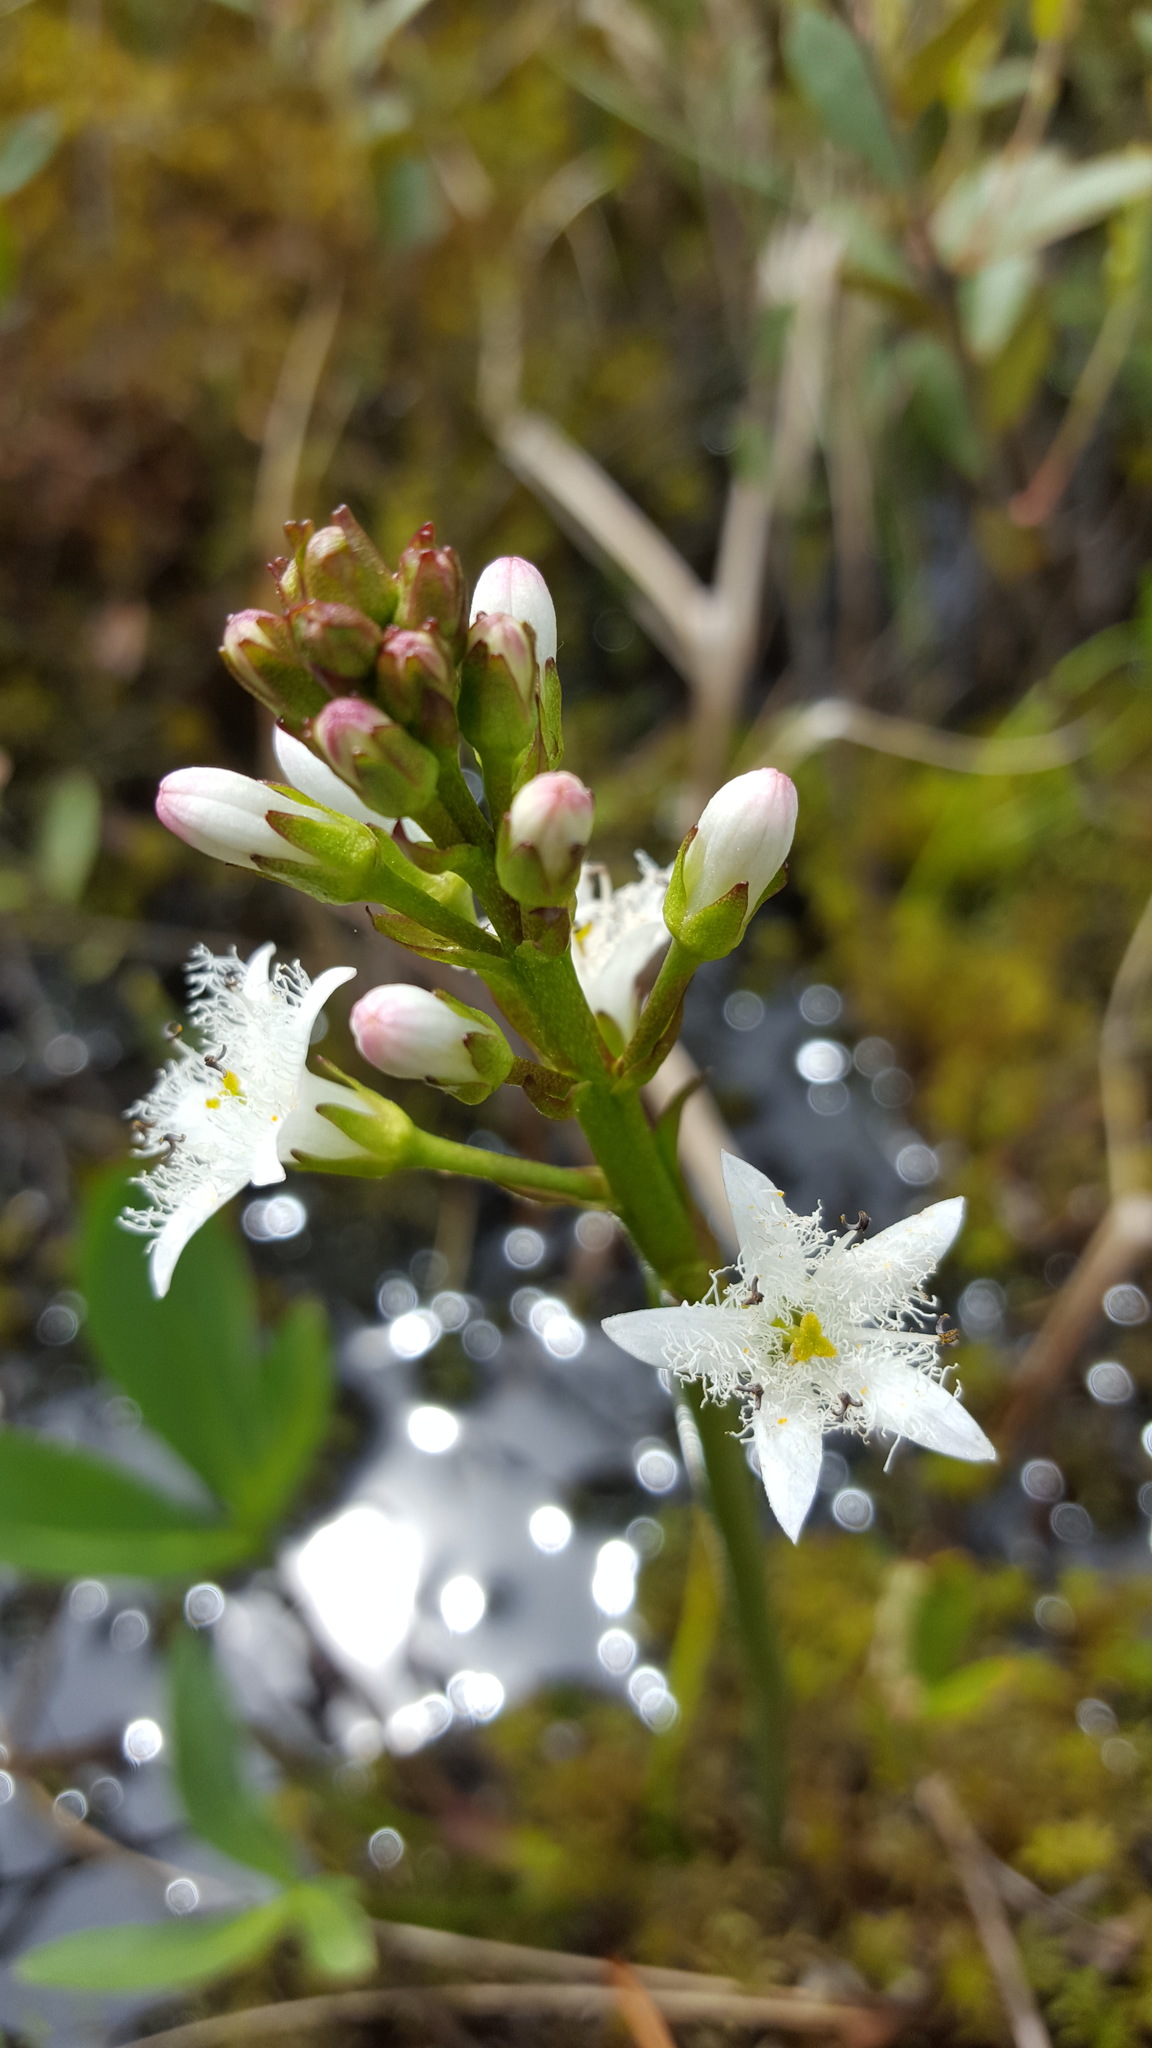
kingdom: Plantae
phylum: Tracheophyta
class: Magnoliopsida
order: Asterales
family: Menyanthaceae
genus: Menyanthes
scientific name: Menyanthes trifoliata
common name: Bogbean
